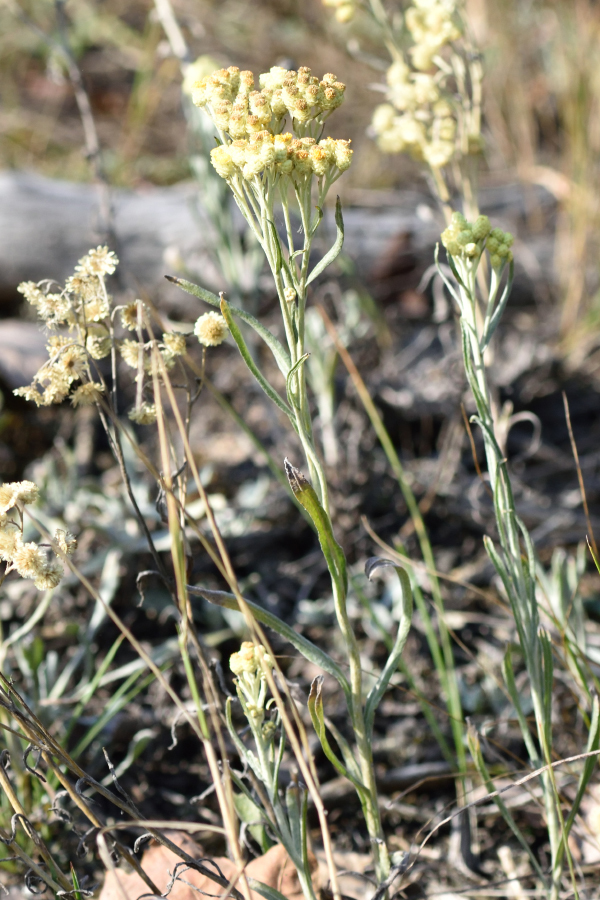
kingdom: Plantae
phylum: Tracheophyta
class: Magnoliopsida
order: Asterales
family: Asteraceae
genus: Helichrysum
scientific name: Helichrysum arenarium
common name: Strawflower
